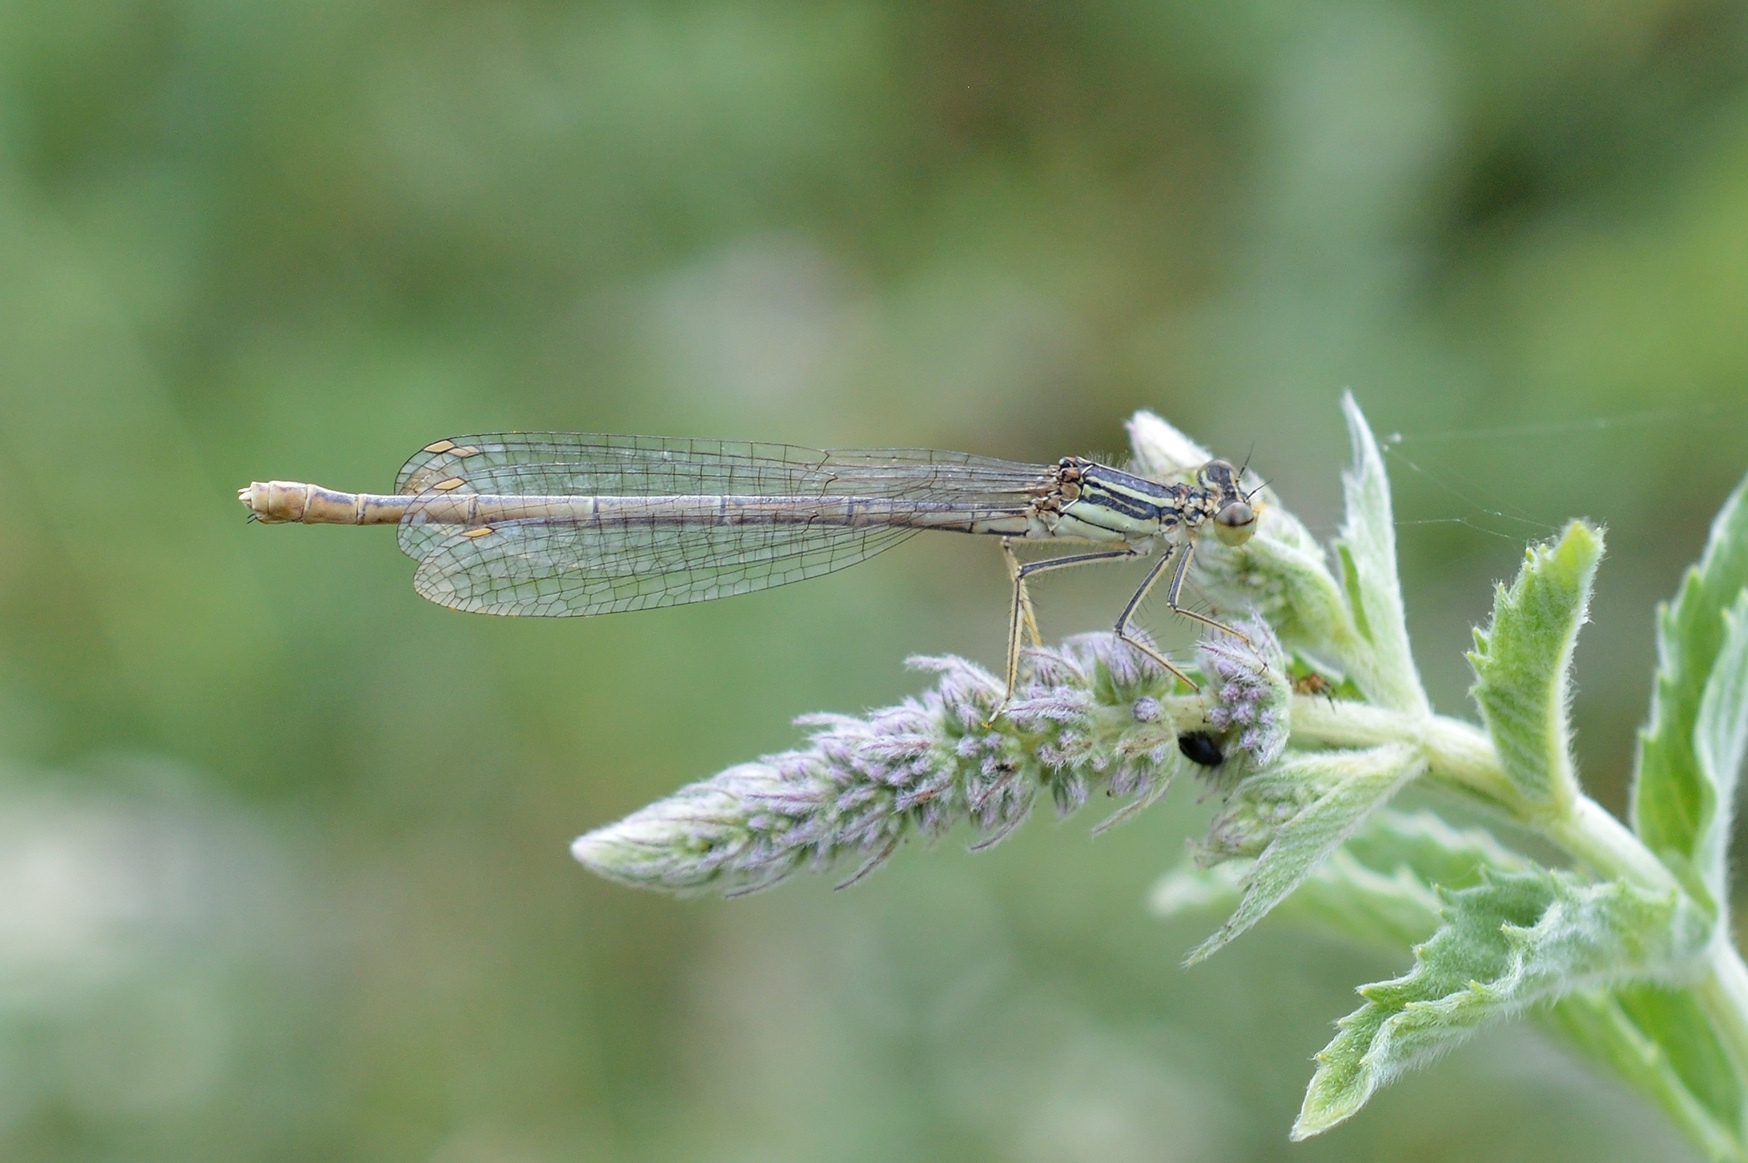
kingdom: Animalia
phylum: Arthropoda
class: Insecta
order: Odonata
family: Platycnemididae
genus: Platycnemis
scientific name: Platycnemis pennipes
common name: White-legged damselfly
